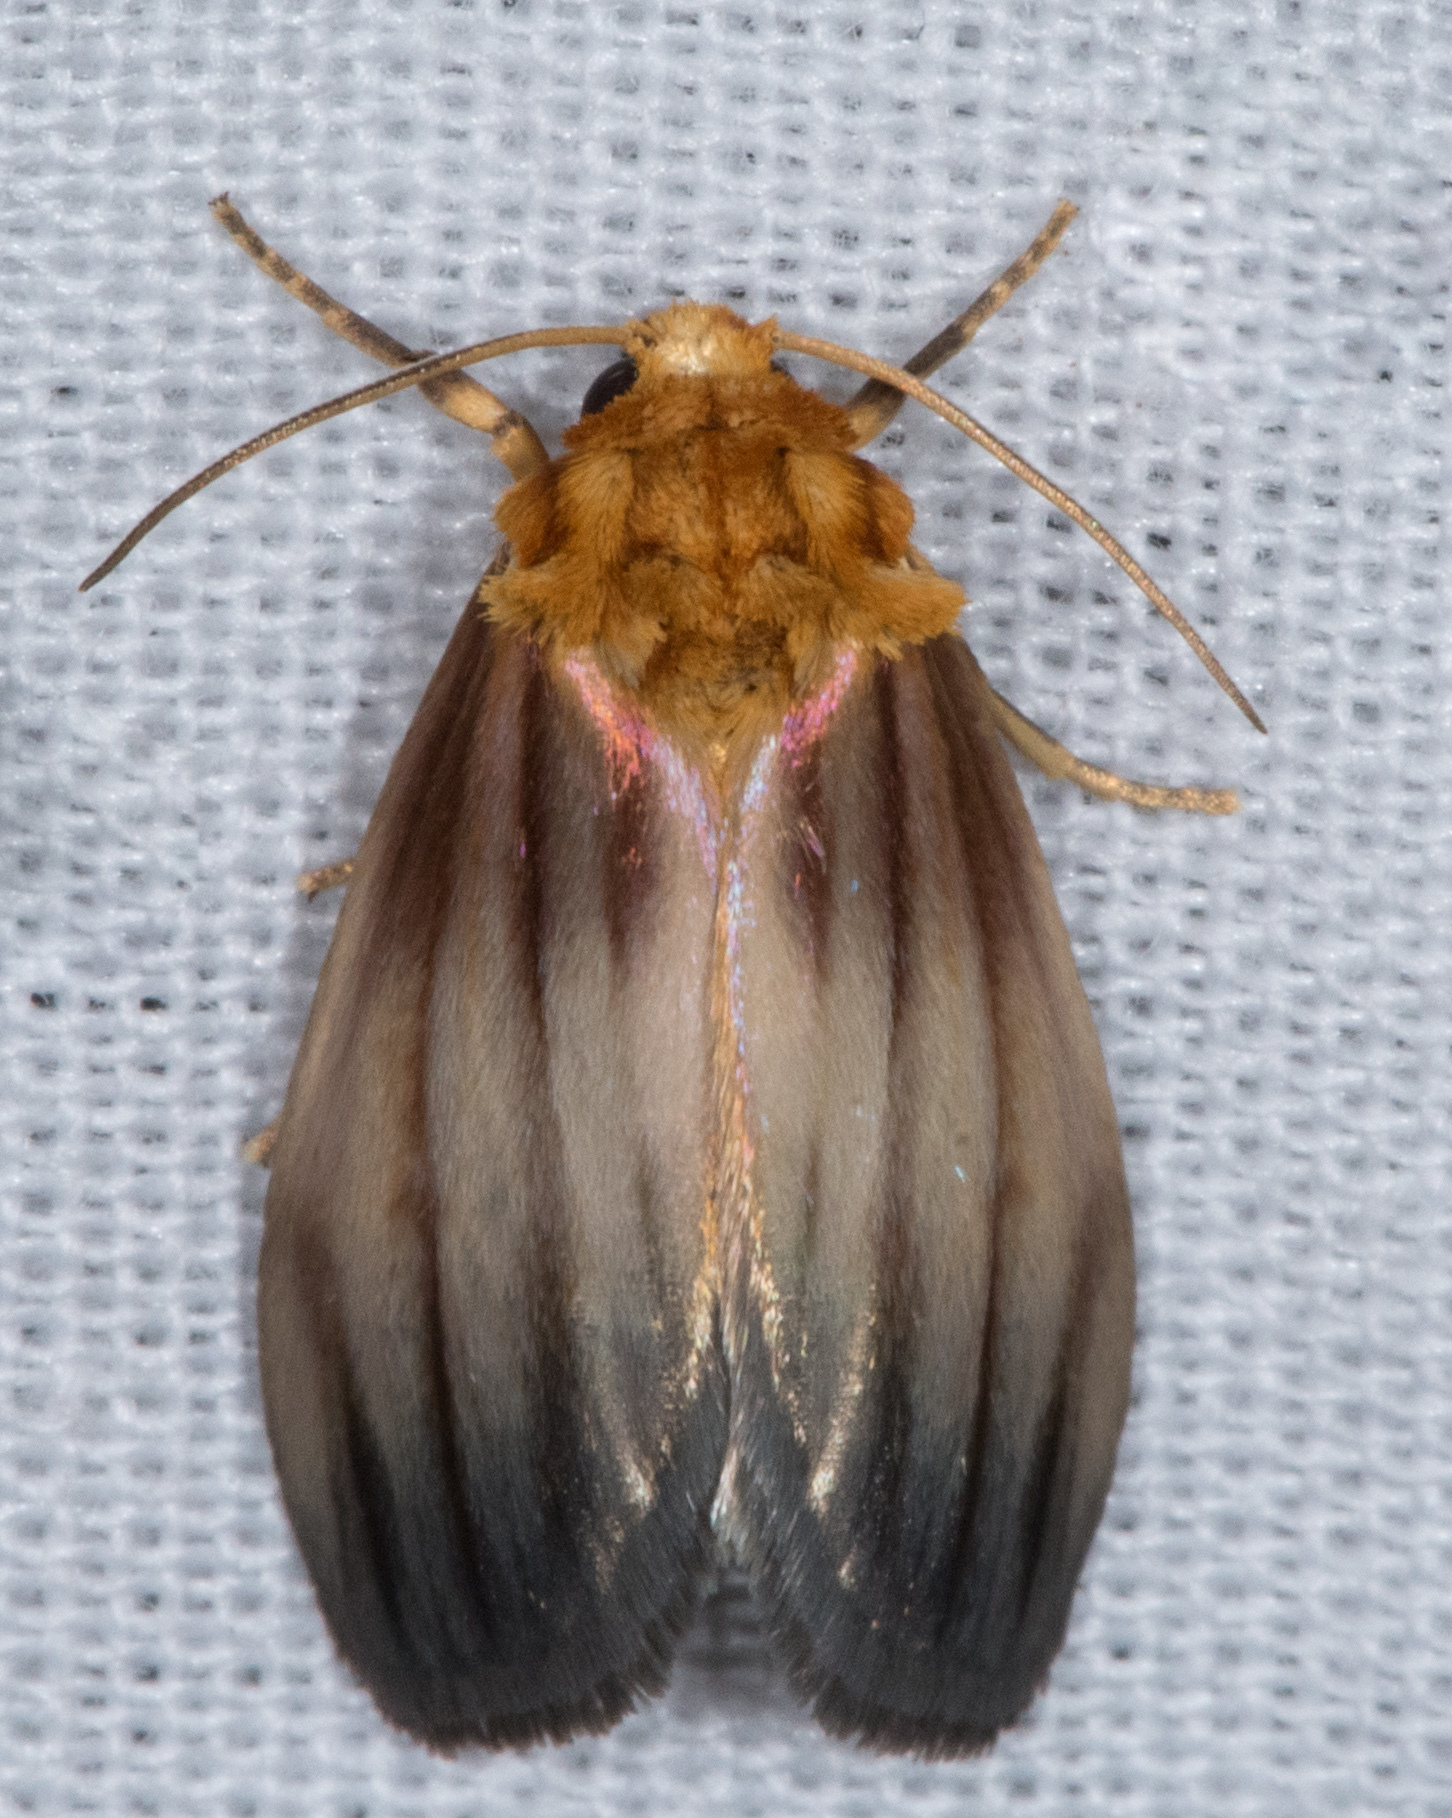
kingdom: Animalia
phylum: Arthropoda
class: Insecta
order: Lepidoptera
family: Noctuidae
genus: Antaplaga
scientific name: Antaplaga plesioglauca
